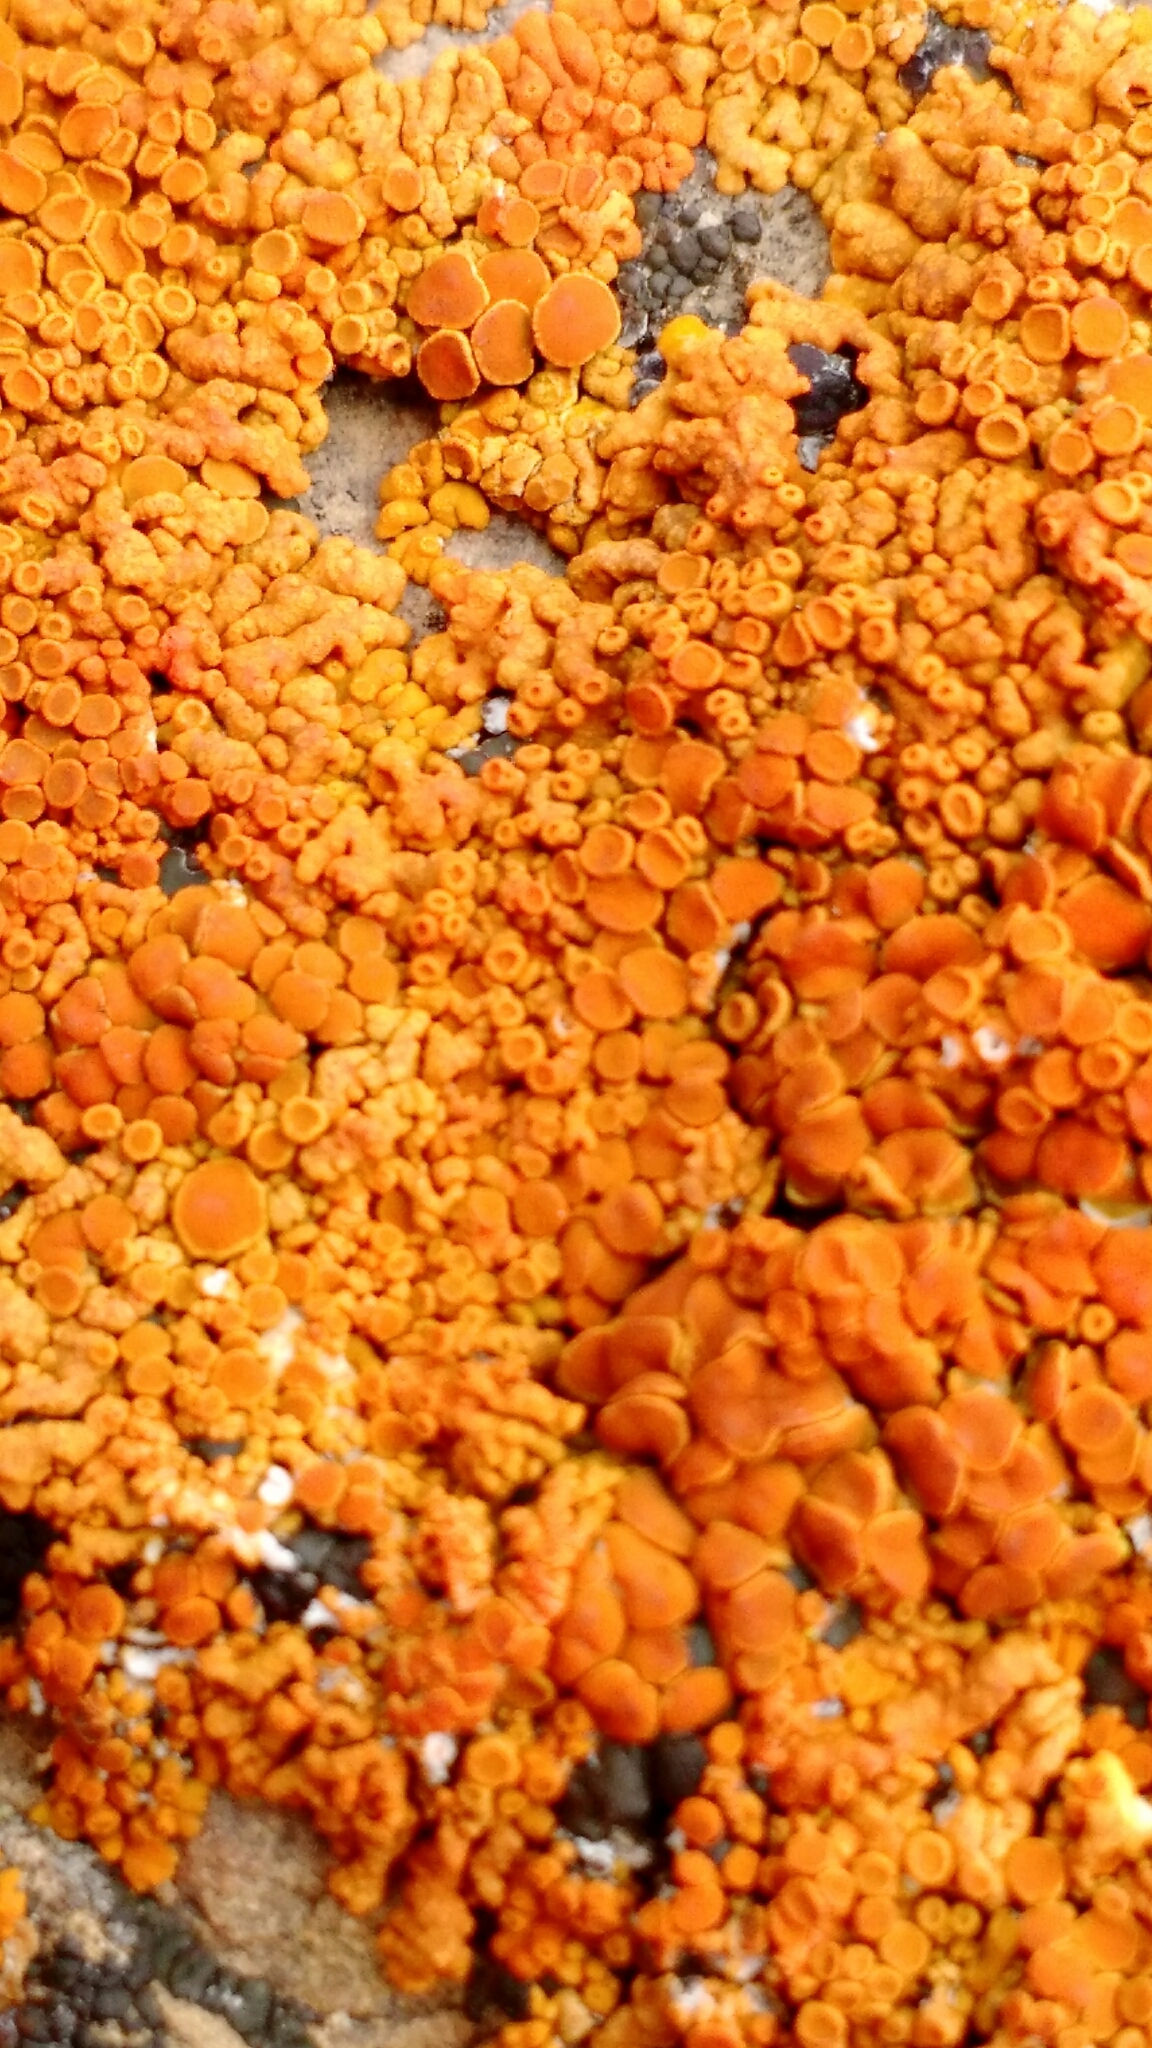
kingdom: Fungi
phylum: Ascomycota
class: Lecanoromycetes
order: Teloschistales
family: Teloschistaceae
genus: Xanthoria
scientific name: Xanthoria elegans
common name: Elegant sunburst lichen
